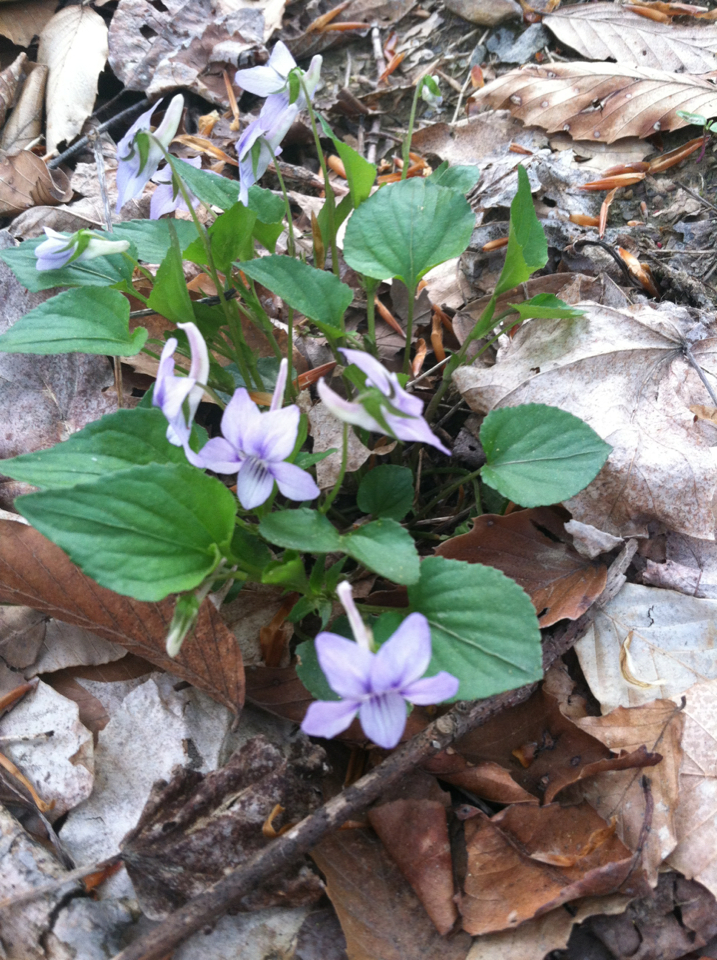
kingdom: Plantae
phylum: Tracheophyta
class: Magnoliopsida
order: Malpighiales
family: Violaceae
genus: Viola
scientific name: Viola rostrata
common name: Long-spur violet
